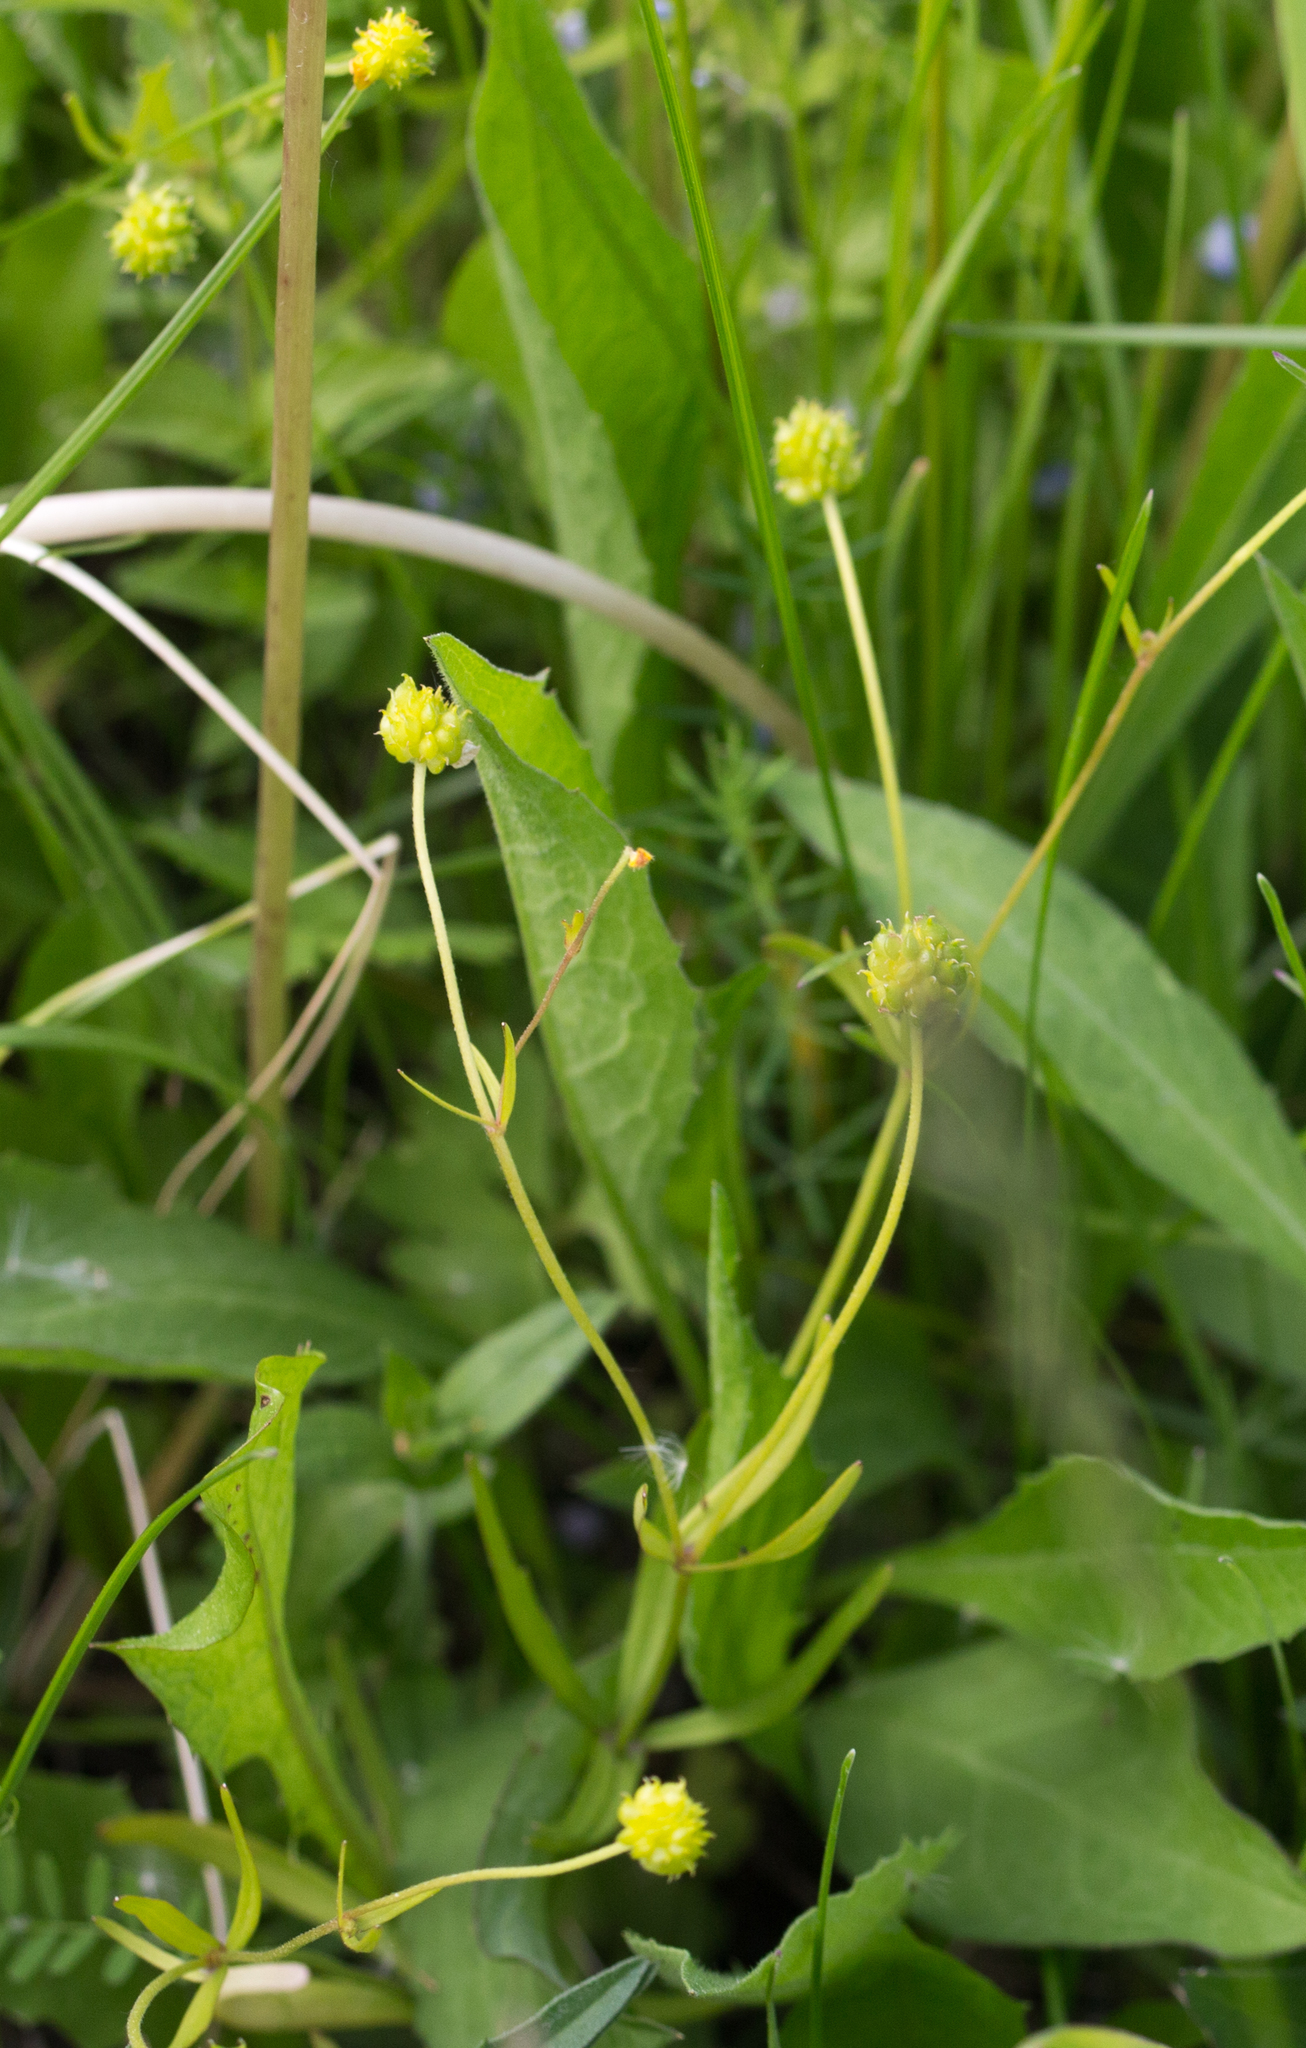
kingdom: Plantae
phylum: Tracheophyta
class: Magnoliopsida
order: Ranunculales
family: Ranunculaceae
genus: Ranunculus
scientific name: Ranunculus polyanthemos
